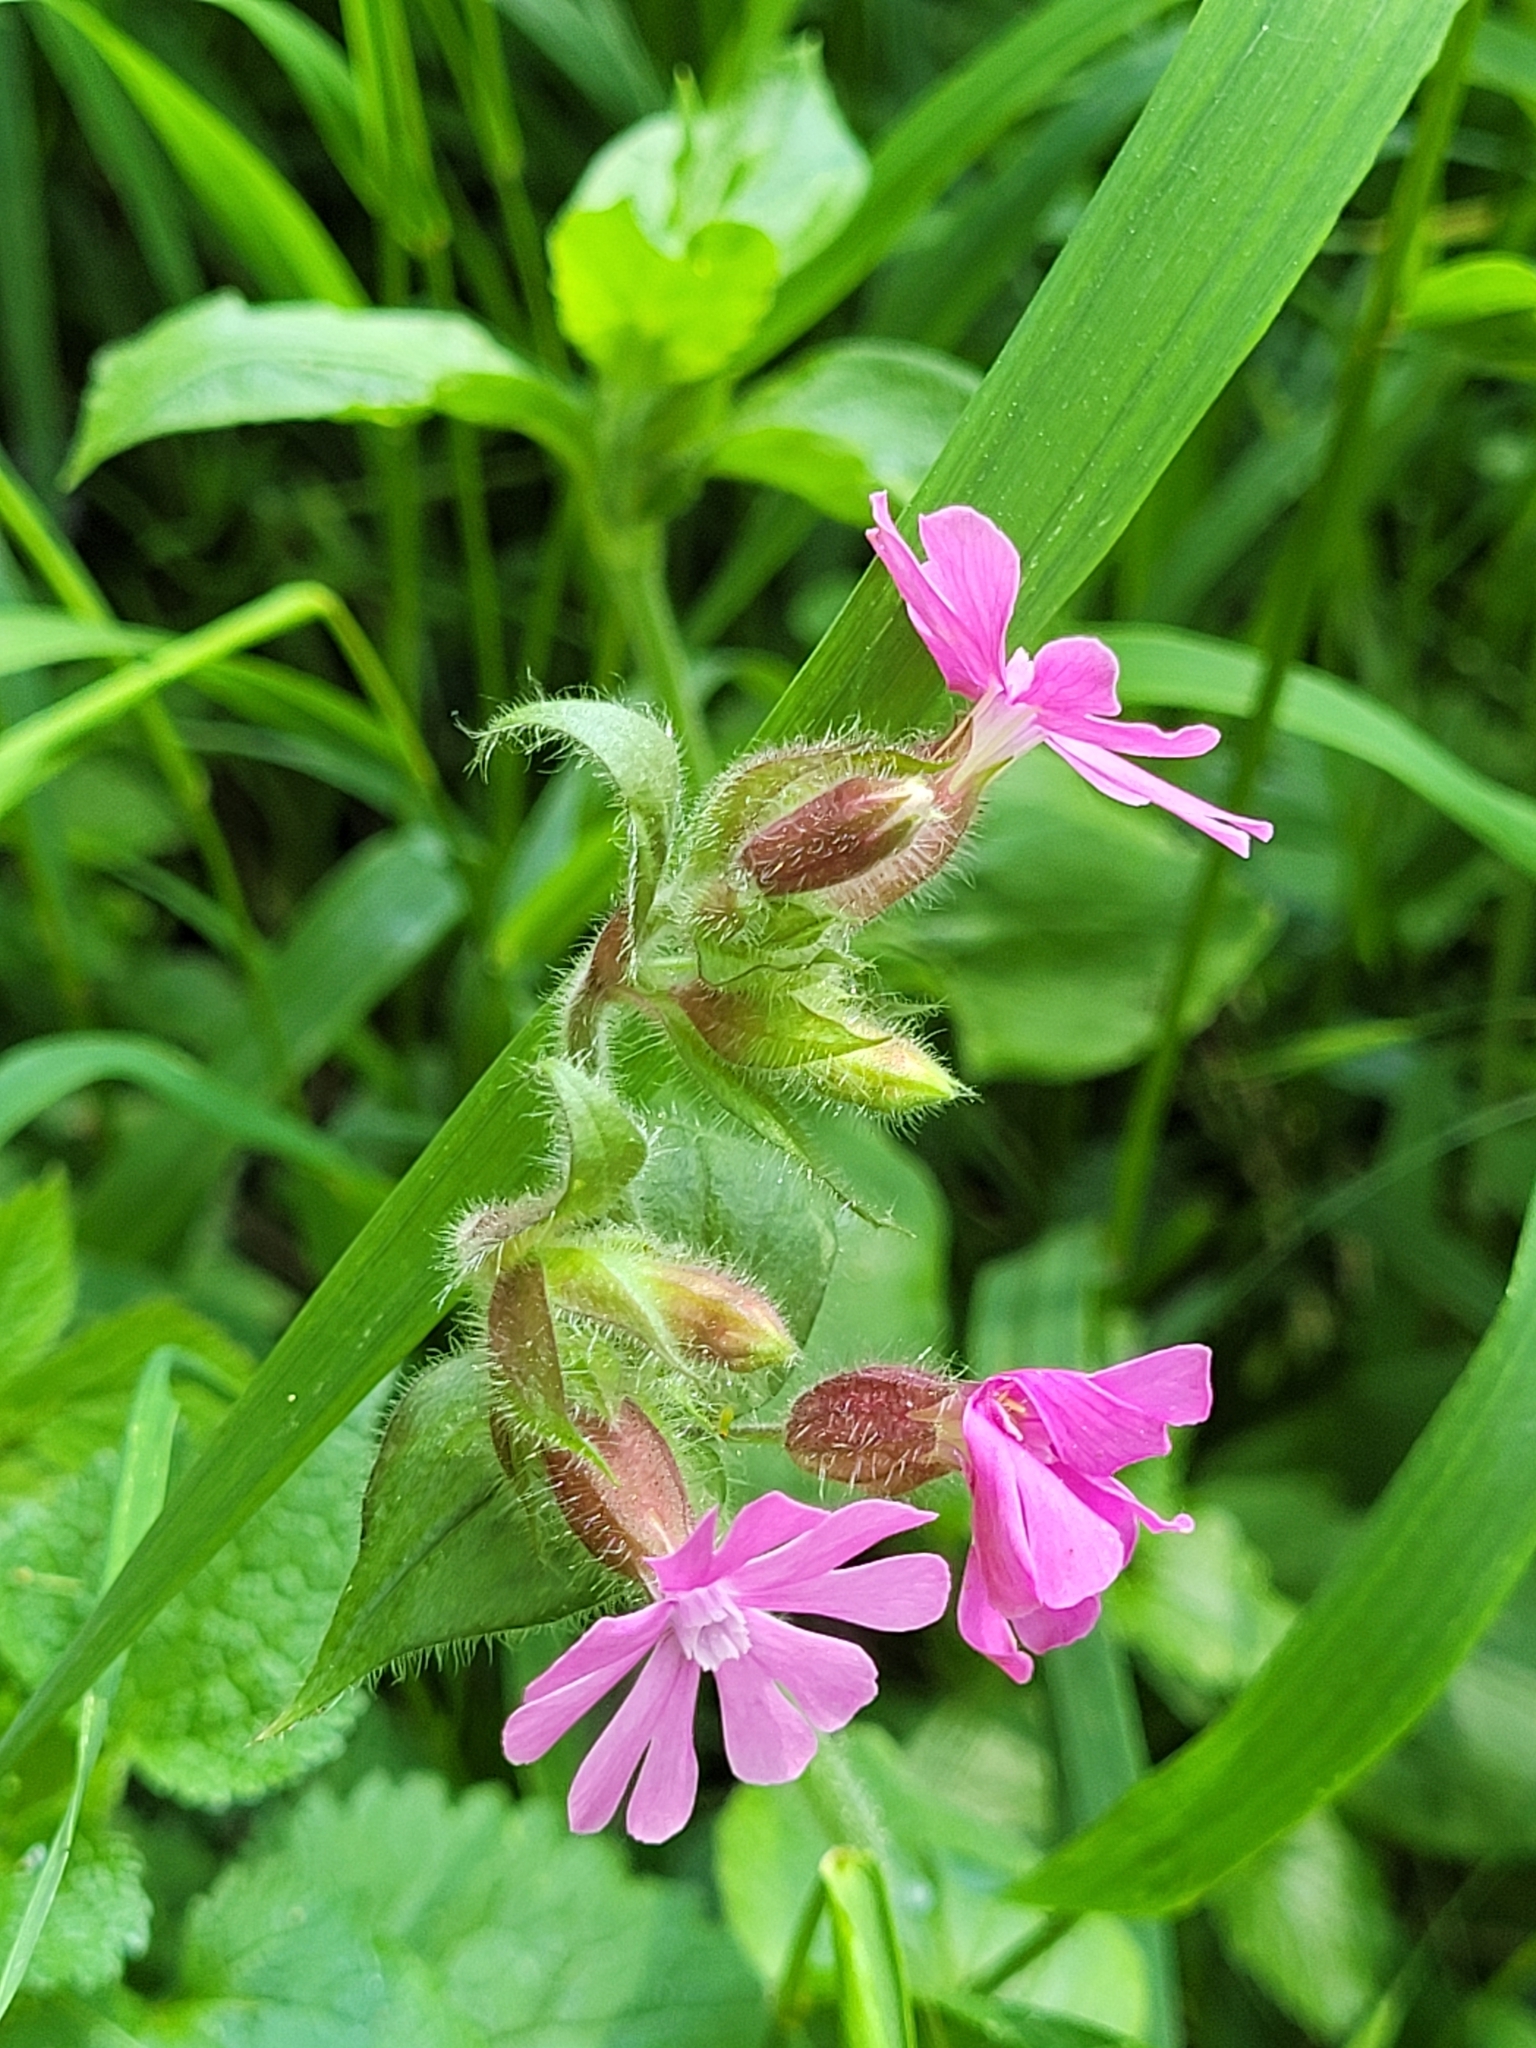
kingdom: Plantae
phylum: Tracheophyta
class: Magnoliopsida
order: Caryophyllales
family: Caryophyllaceae
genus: Silene
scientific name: Silene dioica
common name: Red campion
